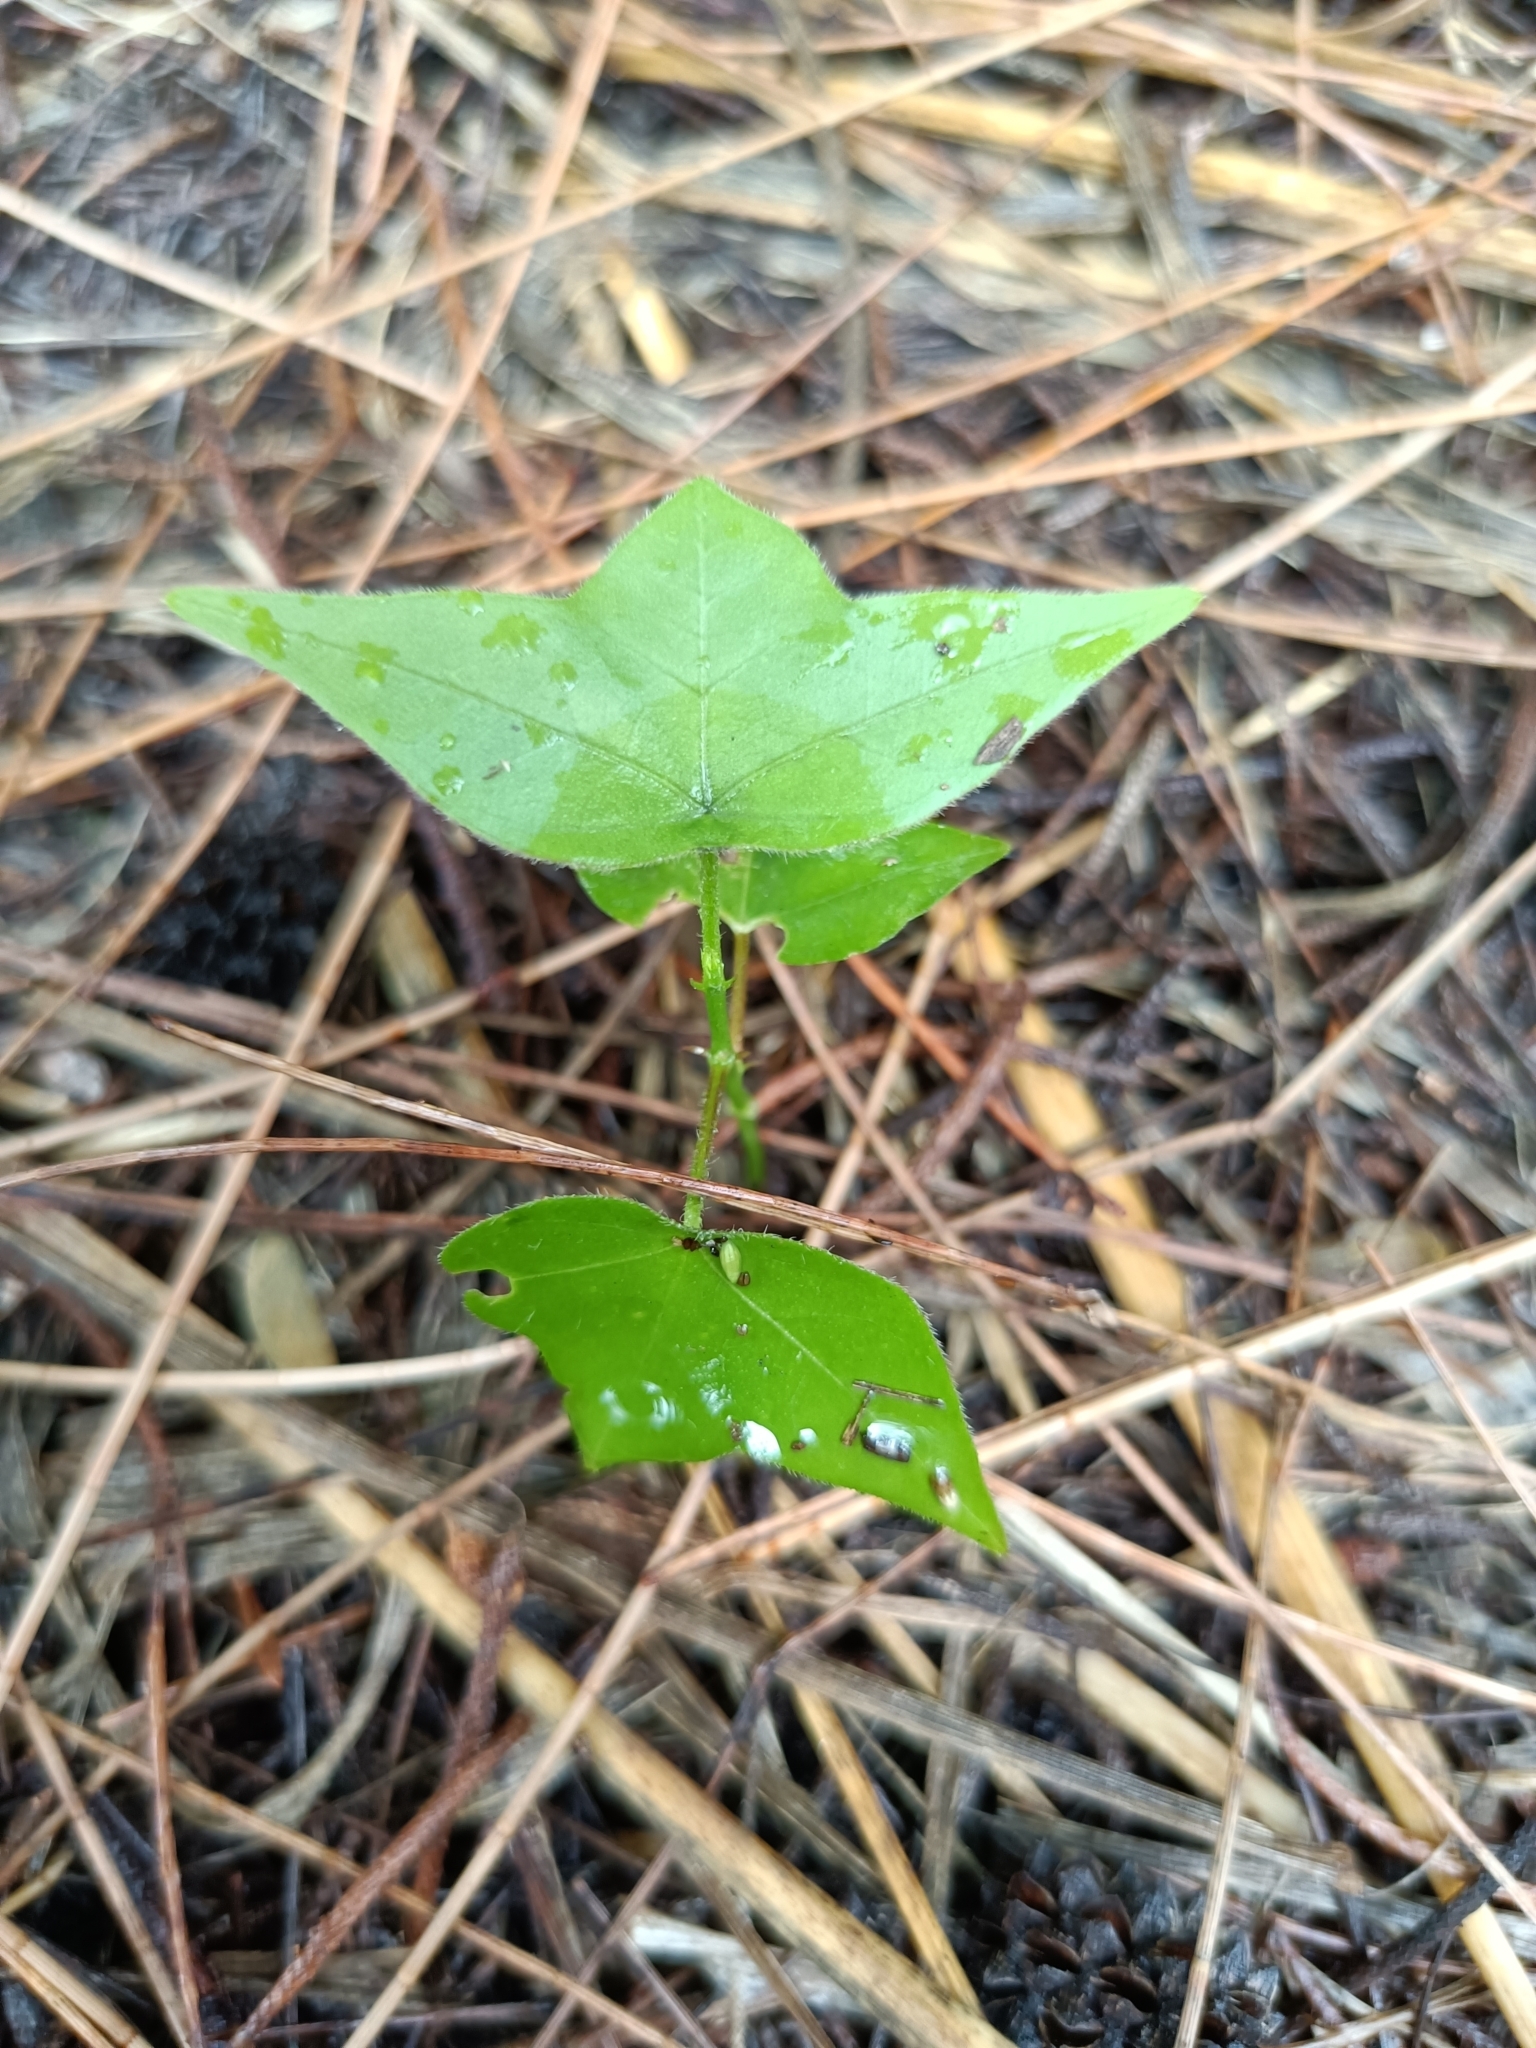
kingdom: Plantae
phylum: Tracheophyta
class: Magnoliopsida
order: Malpighiales
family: Passifloraceae
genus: Passiflora
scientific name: Passiflora suberosa
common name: Wild passionfruit
